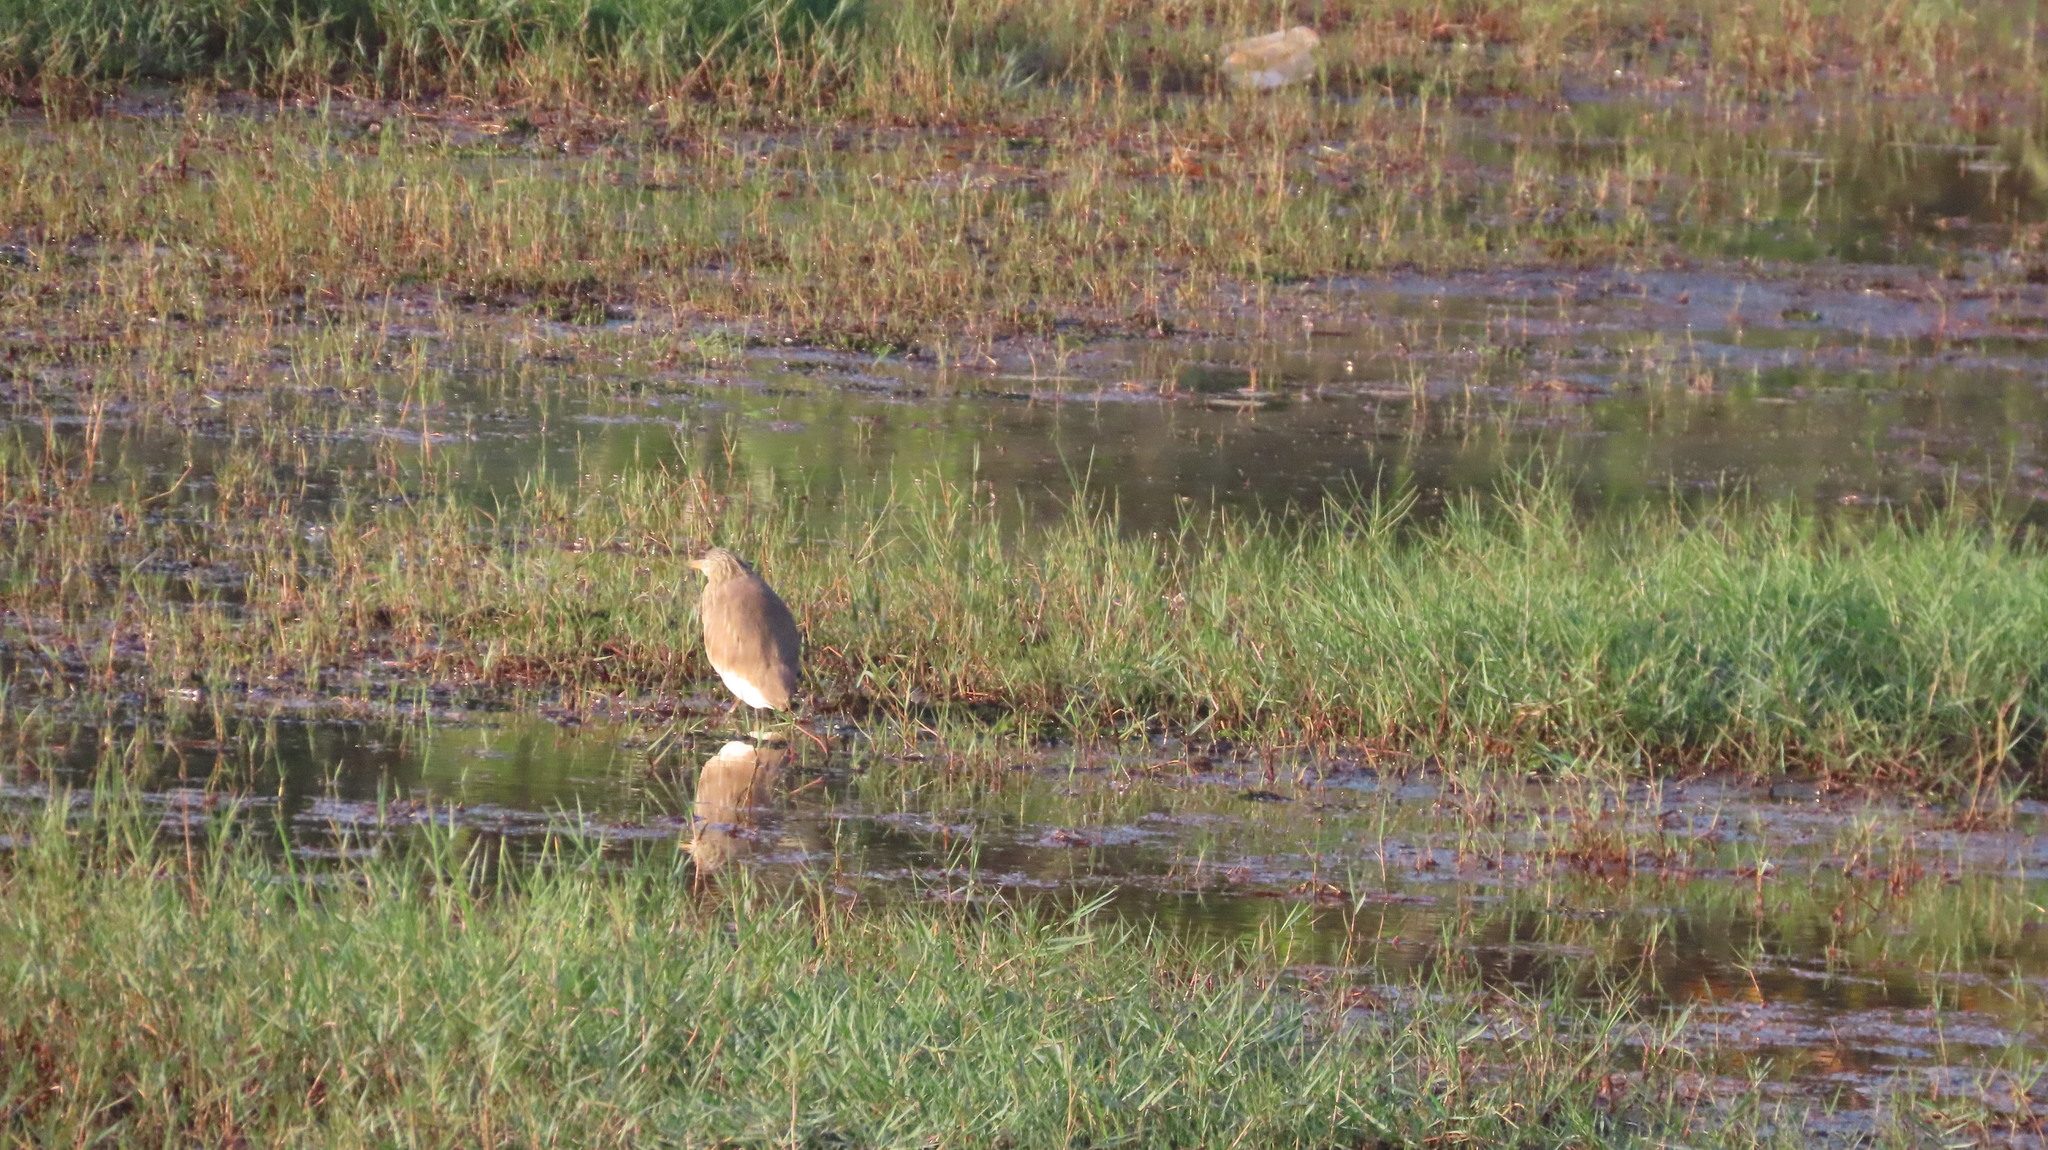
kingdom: Animalia
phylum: Chordata
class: Aves
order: Pelecaniformes
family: Ardeidae
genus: Ardeola
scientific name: Ardeola grayii
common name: Indian pond heron
